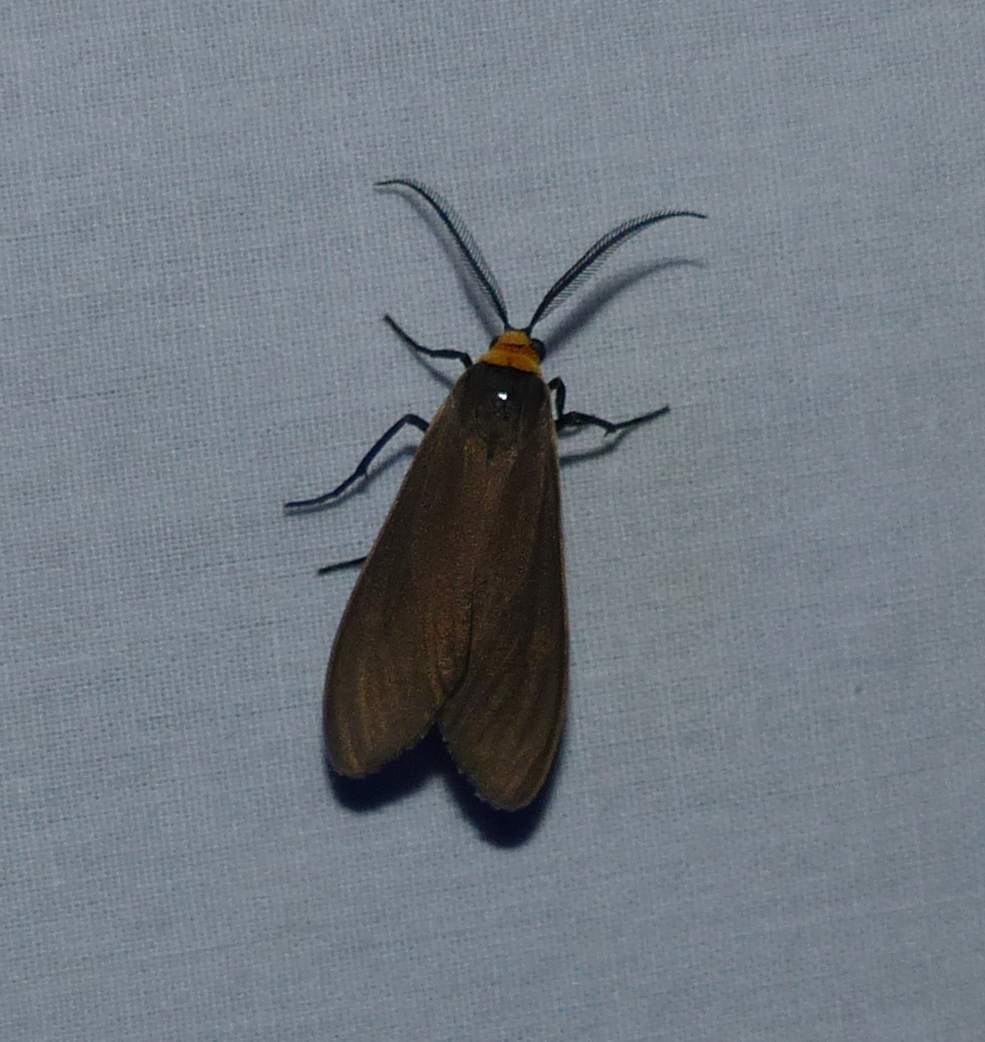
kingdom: Animalia
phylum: Arthropoda
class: Insecta
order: Lepidoptera
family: Erebidae
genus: Cisseps
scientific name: Cisseps fulvicollis
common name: Yellow-collared scape moth
